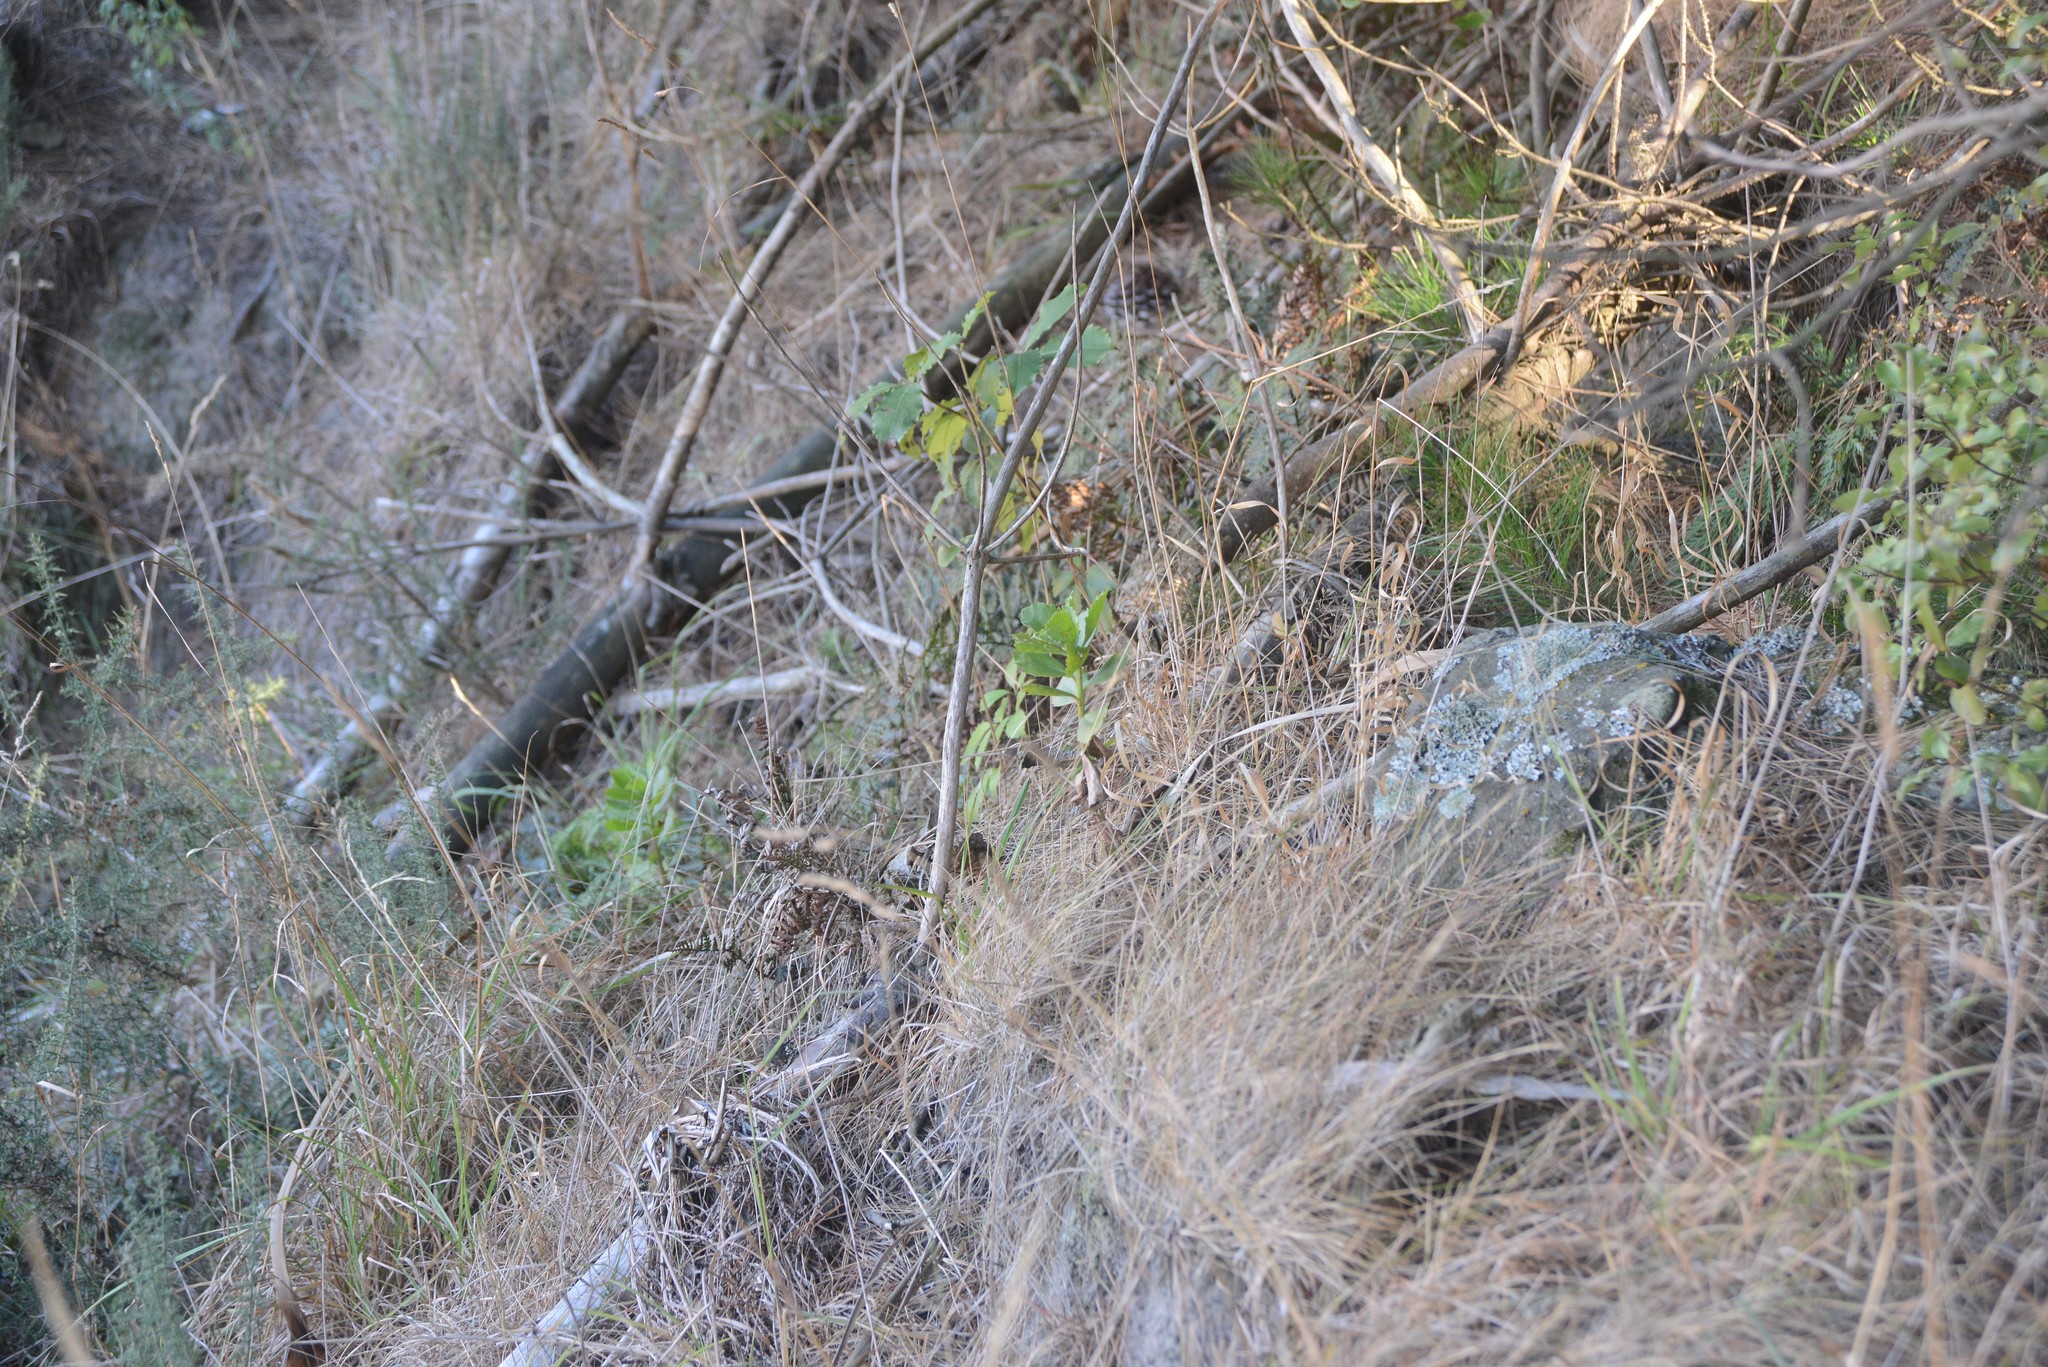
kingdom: Plantae
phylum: Tracheophyta
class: Magnoliopsida
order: Asterales
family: Asteraceae
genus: Osteospermum
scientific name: Osteospermum moniliferum
